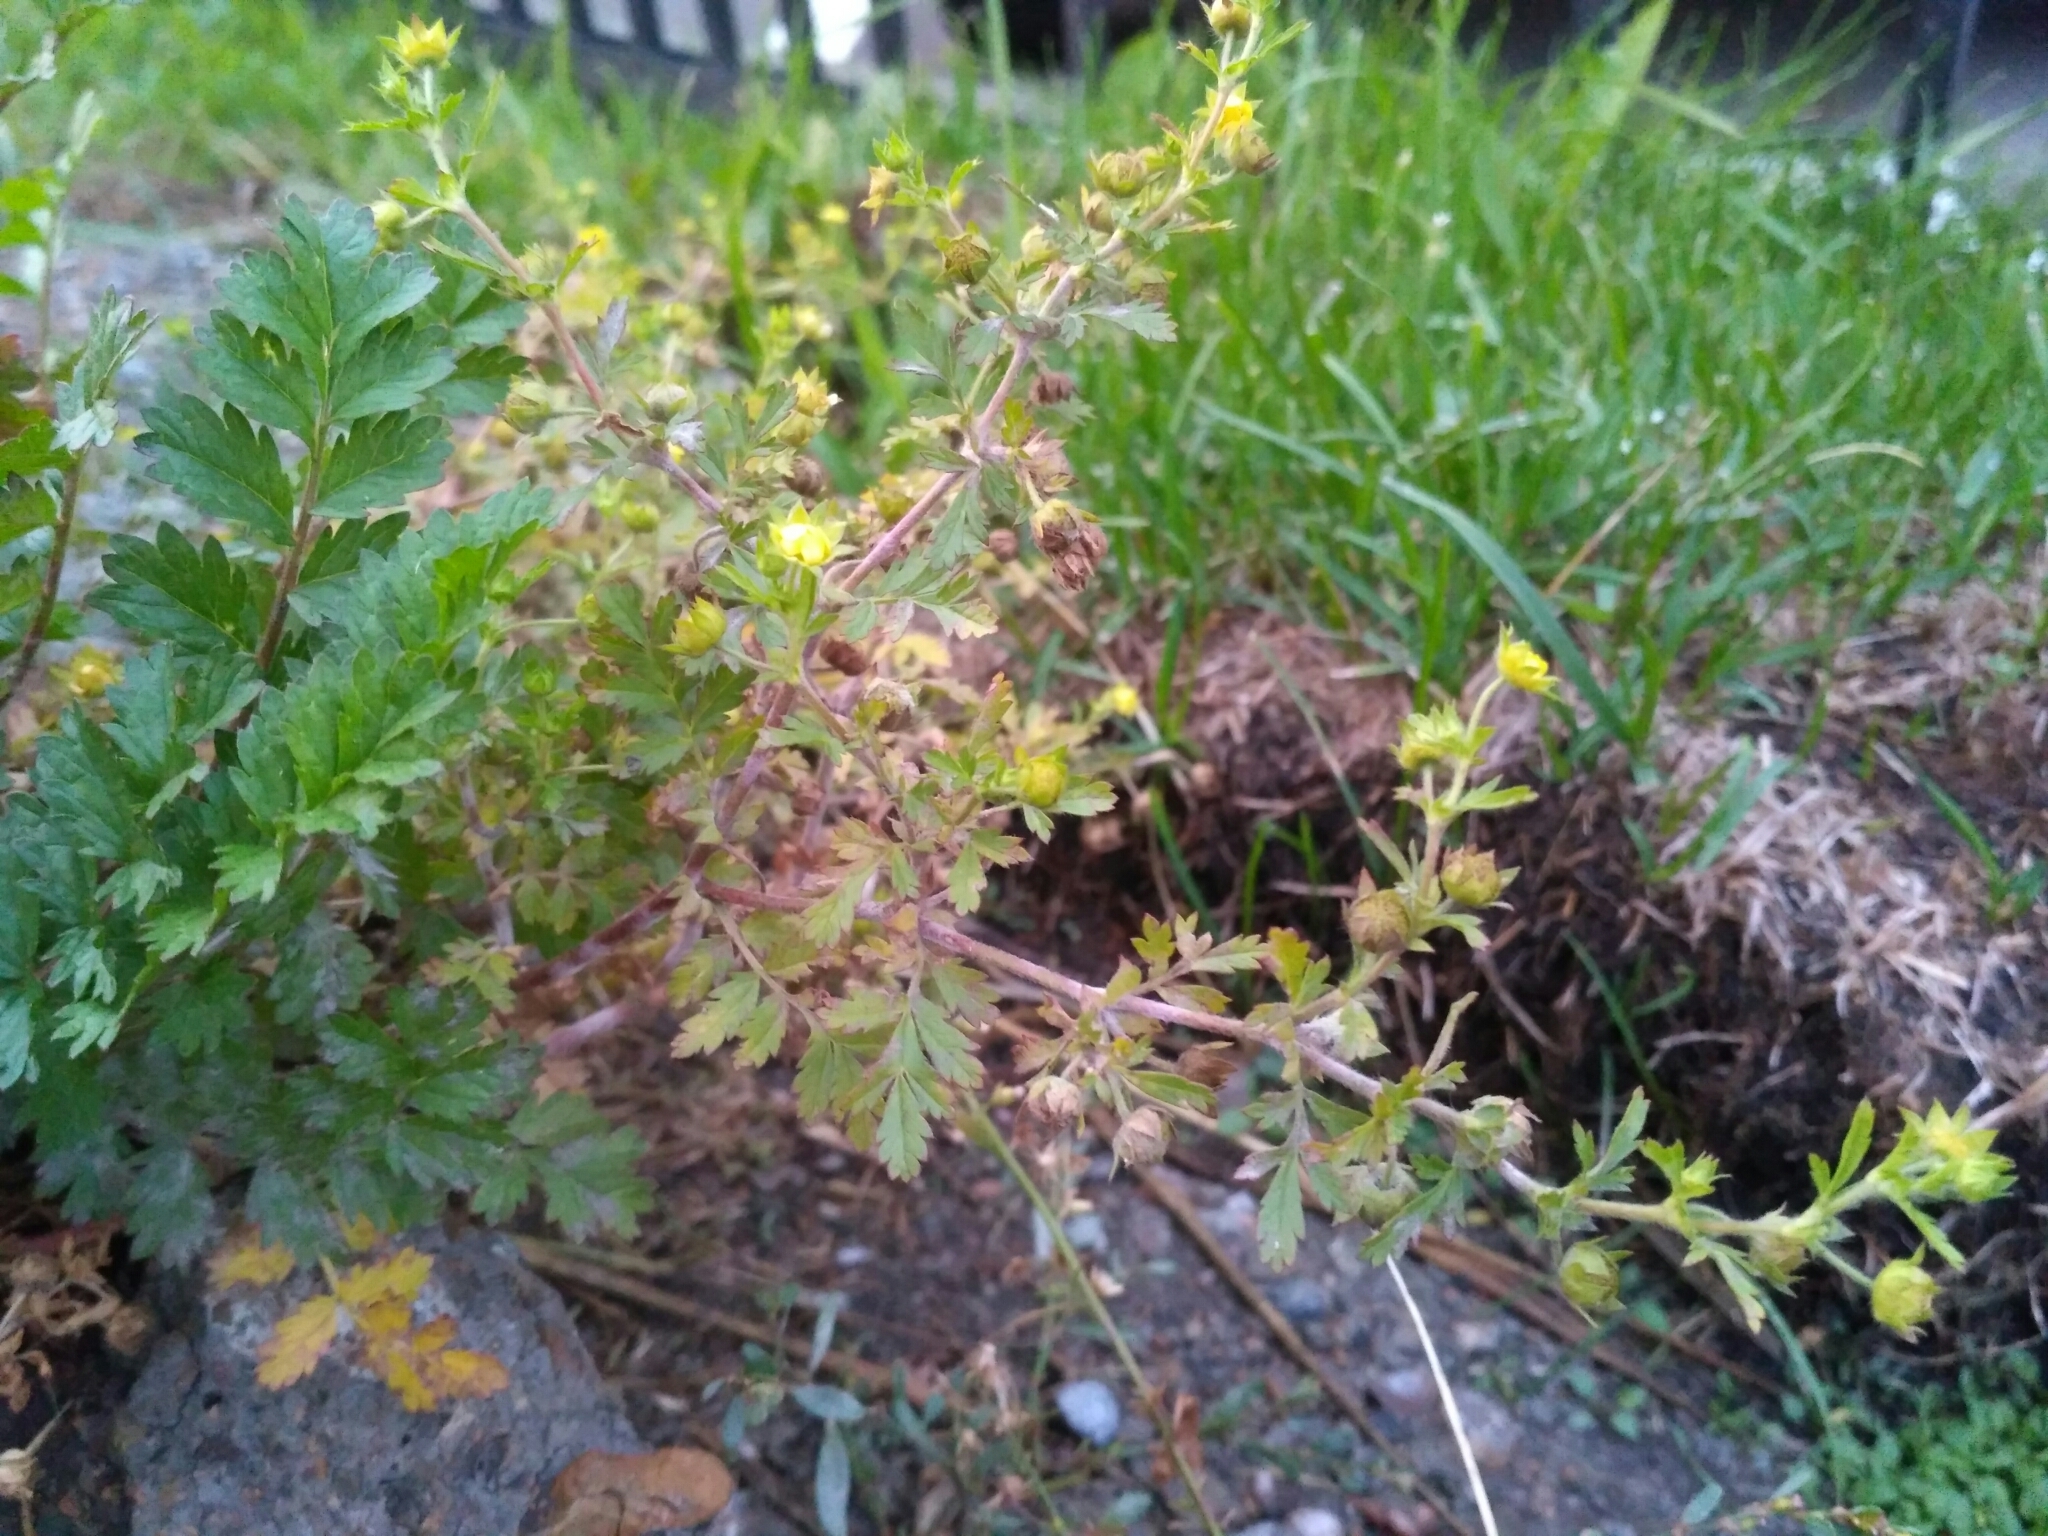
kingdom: Plantae
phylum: Tracheophyta
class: Magnoliopsida
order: Rosales
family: Rosaceae
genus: Potentilla
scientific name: Potentilla supina
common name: Prostrate cinquefoil
